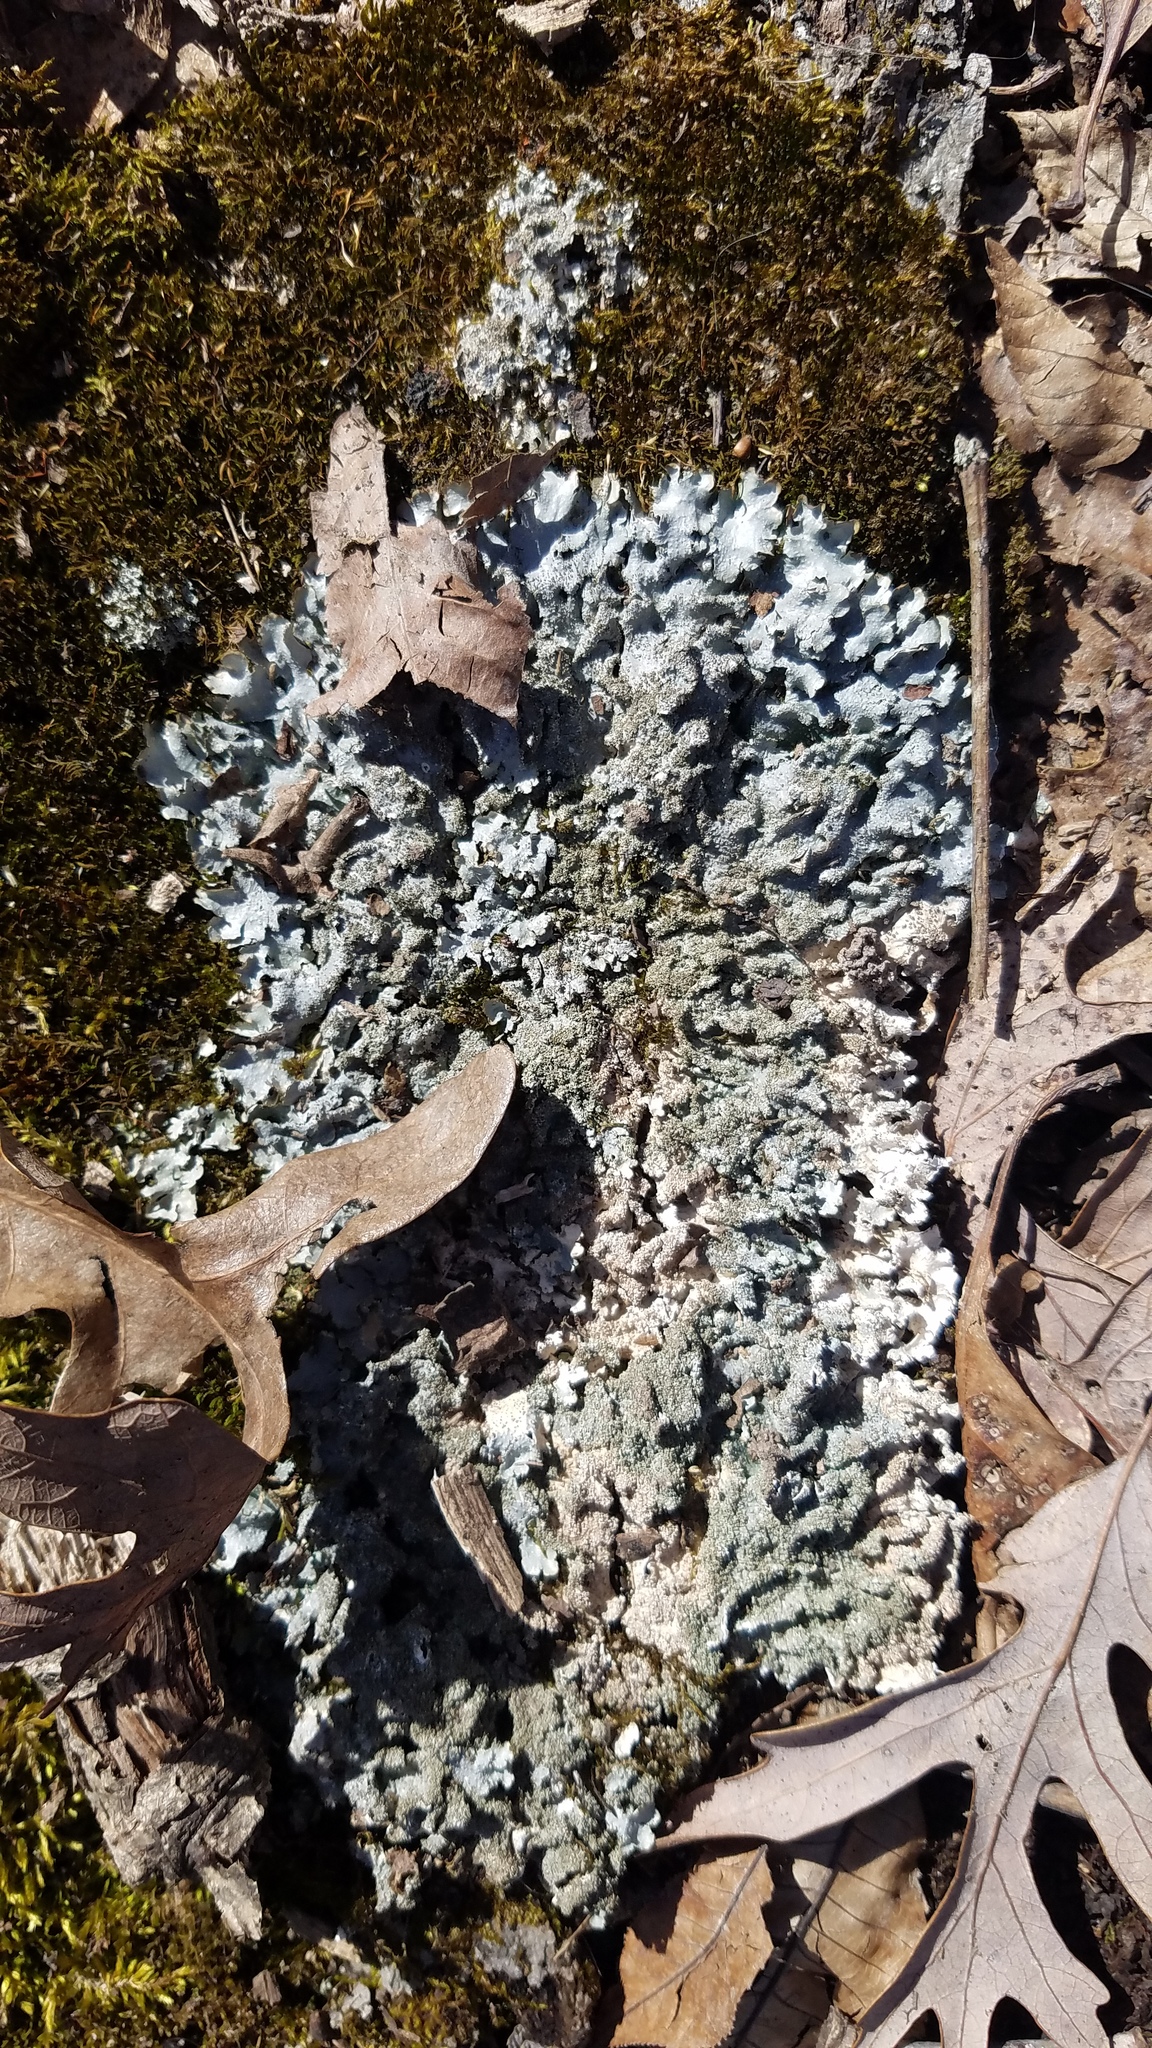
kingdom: Fungi
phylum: Ascomycota
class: Lecanoromycetes
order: Lecanorales
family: Parmeliaceae
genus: Punctelia
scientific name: Punctelia rudecta
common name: Rough speckled shield lichen
